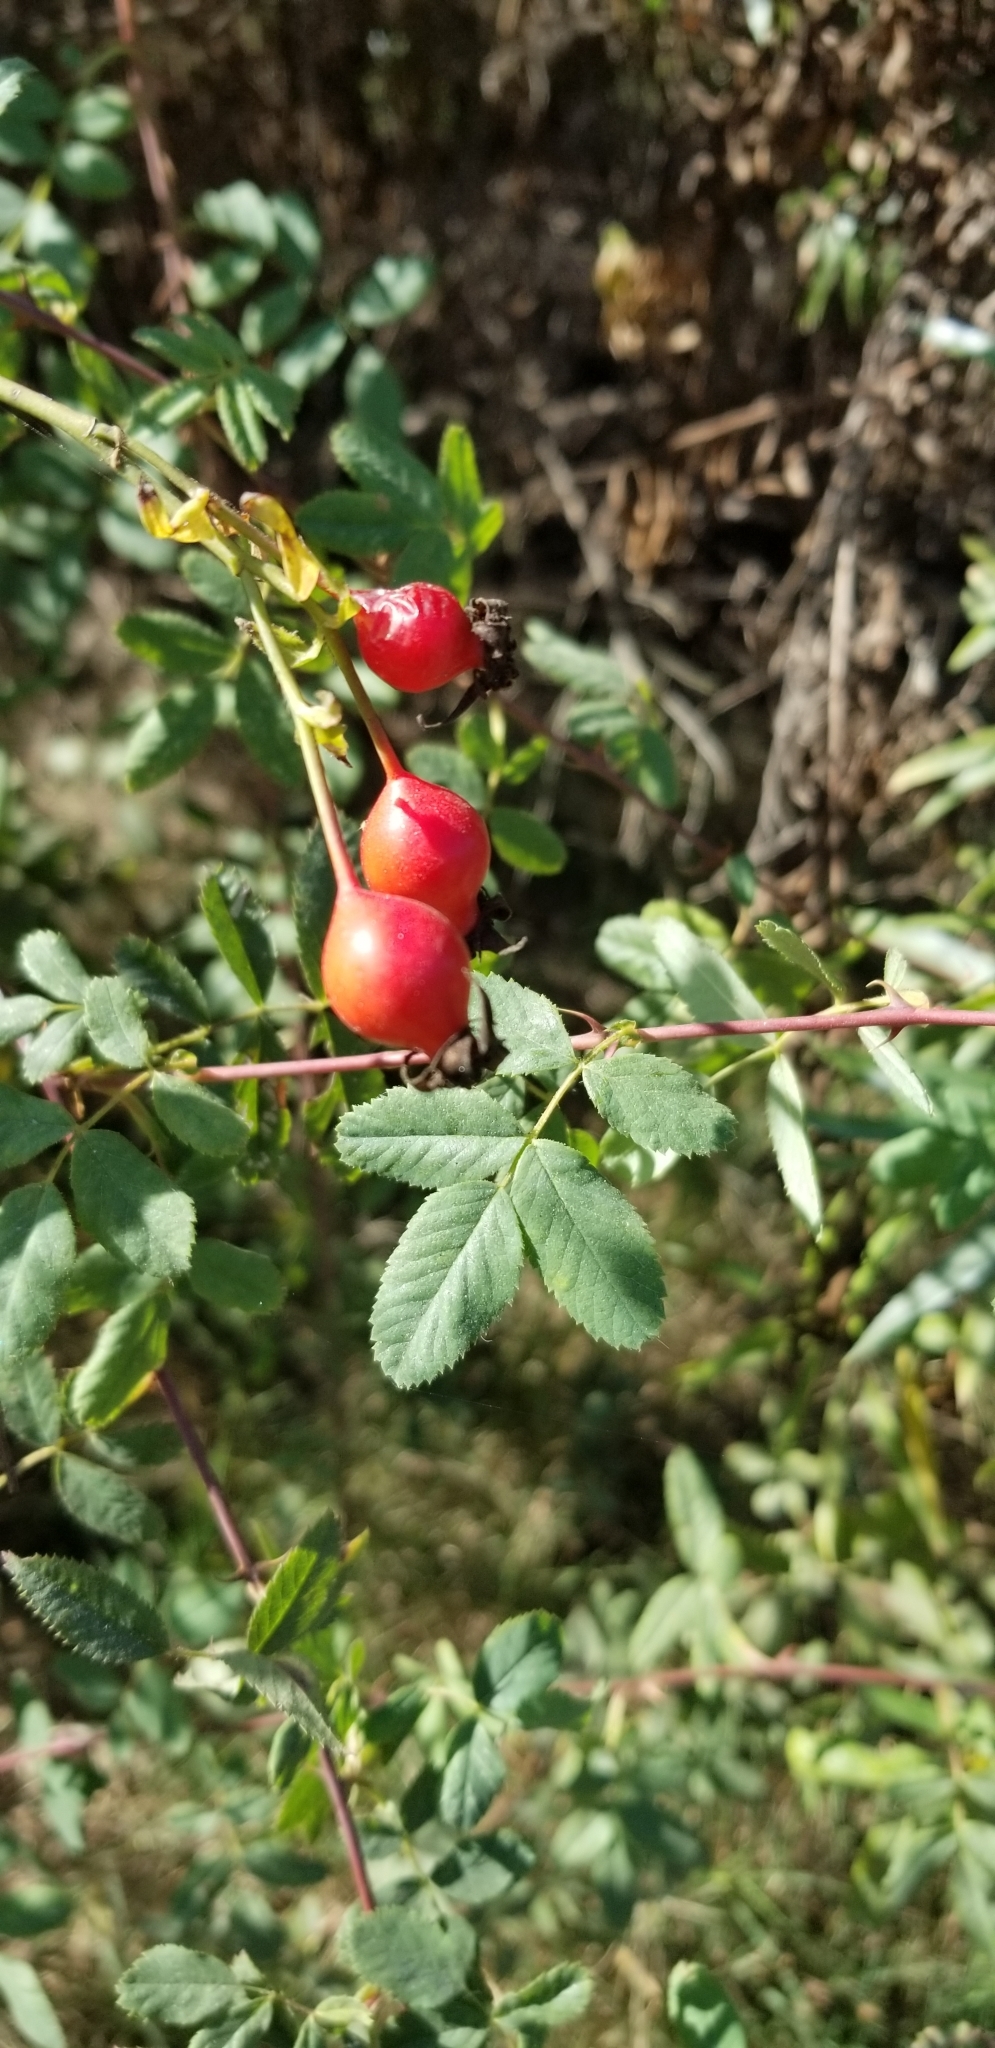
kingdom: Plantae
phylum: Tracheophyta
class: Magnoliopsida
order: Rosales
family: Rosaceae
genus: Rosa
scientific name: Rosa californica
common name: California rose
